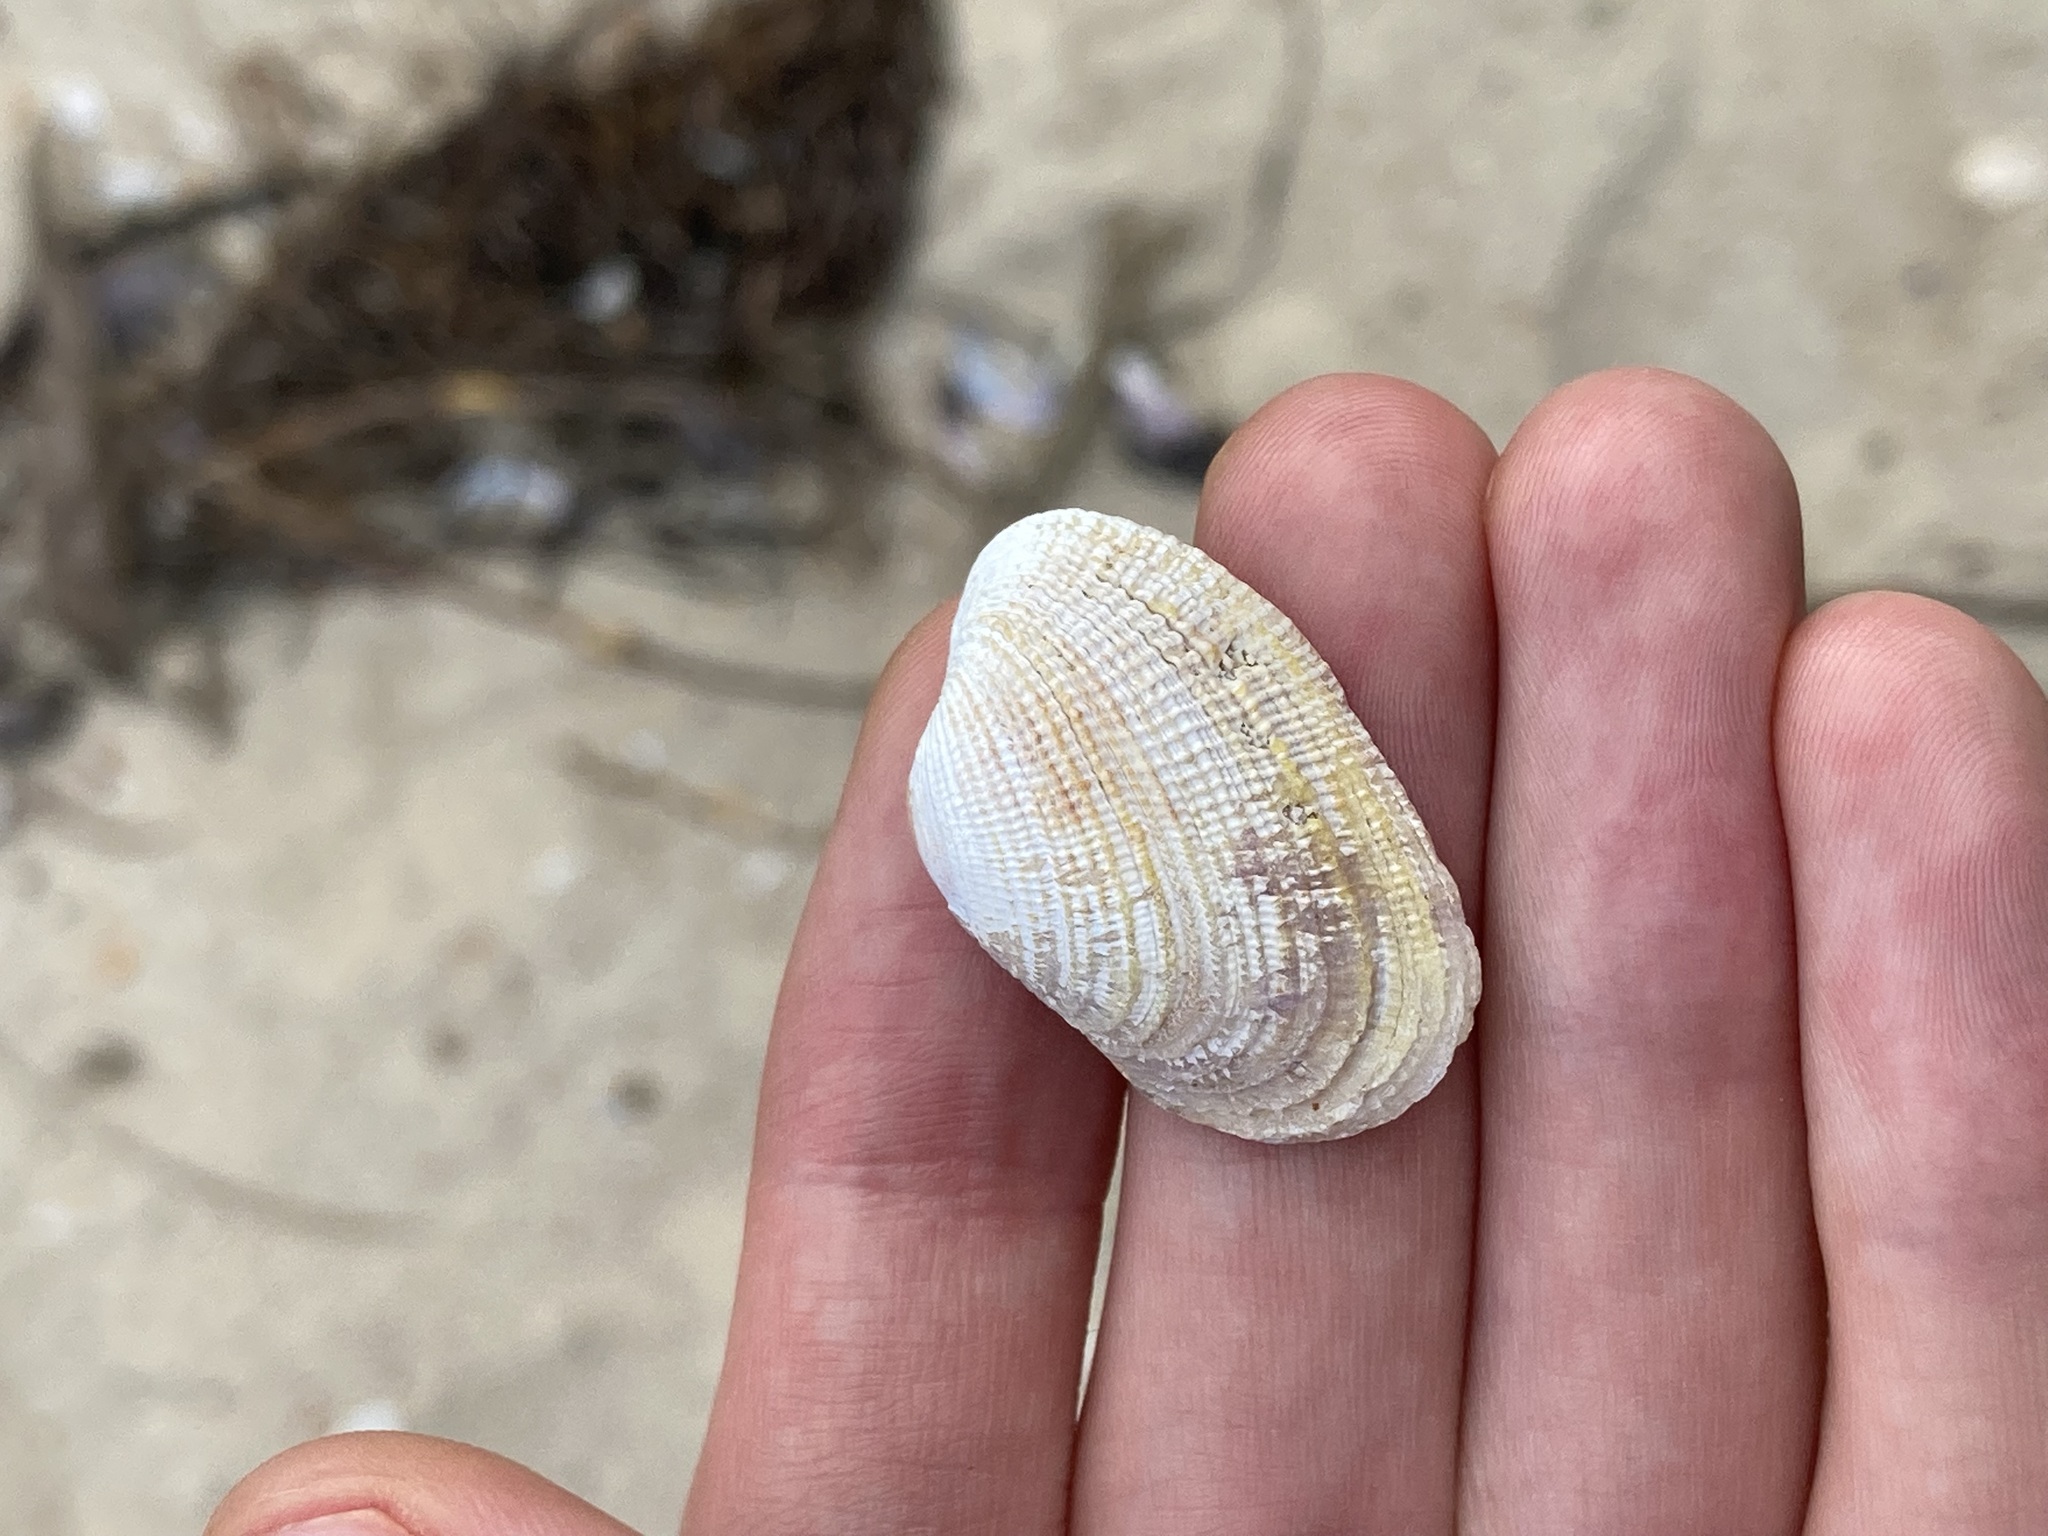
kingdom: Animalia
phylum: Mollusca
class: Bivalvia
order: Venerida
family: Veneridae
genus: Irus
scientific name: Irus crenatus
